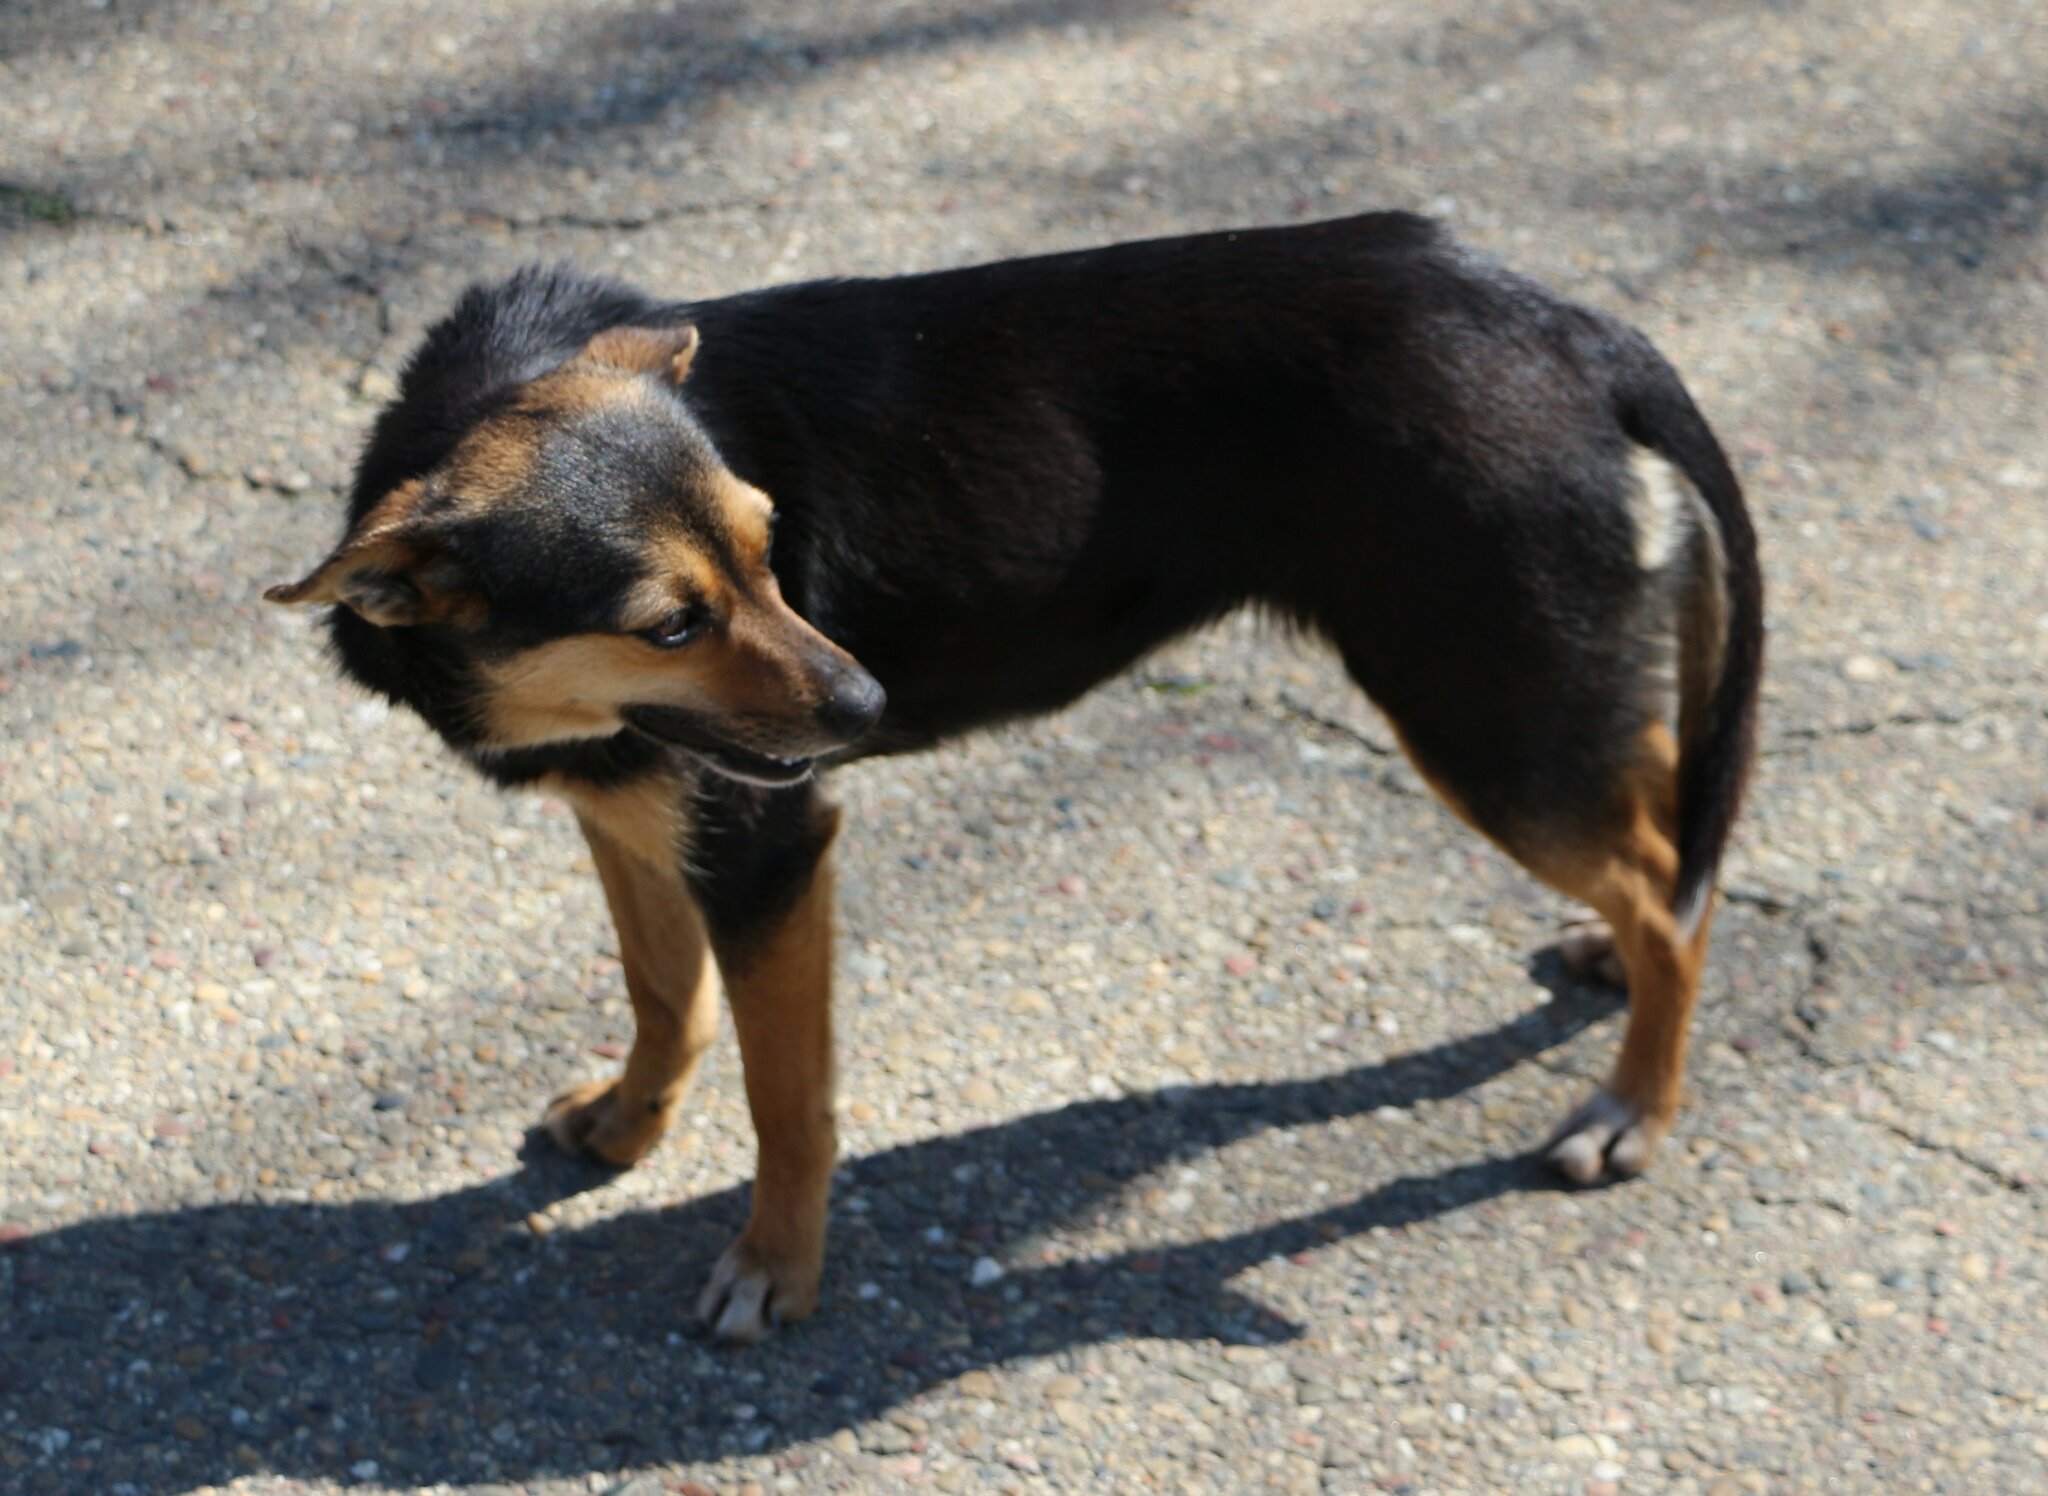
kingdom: Animalia
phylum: Chordata
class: Mammalia
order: Carnivora
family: Canidae
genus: Canis
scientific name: Canis lupus
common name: Gray wolf
